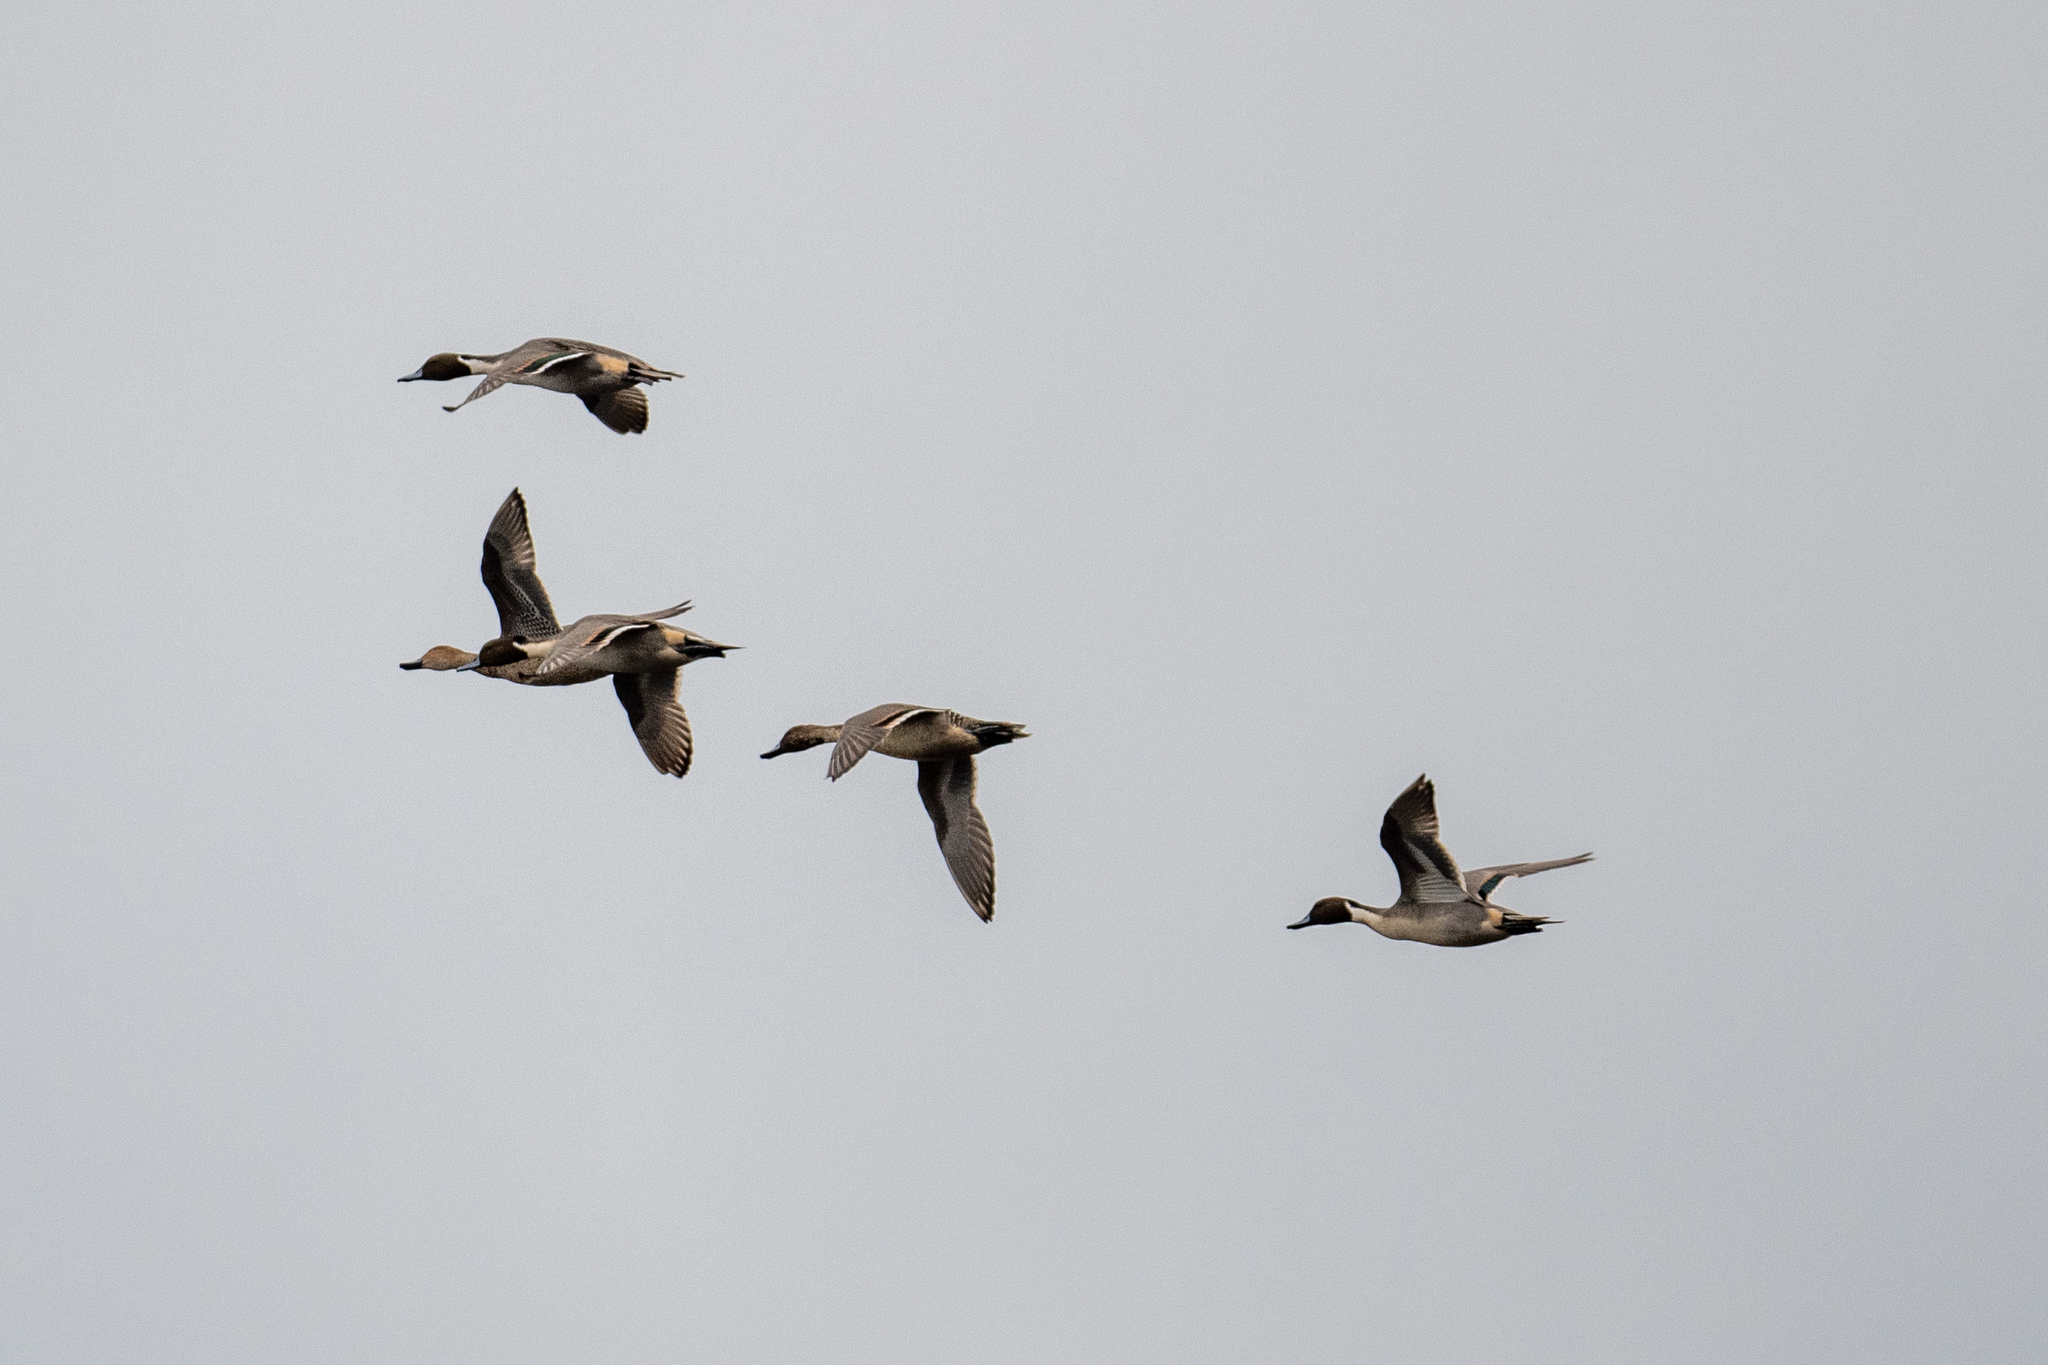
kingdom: Animalia
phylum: Chordata
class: Aves
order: Anseriformes
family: Anatidae
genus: Anas
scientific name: Anas acuta
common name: Northern pintail
